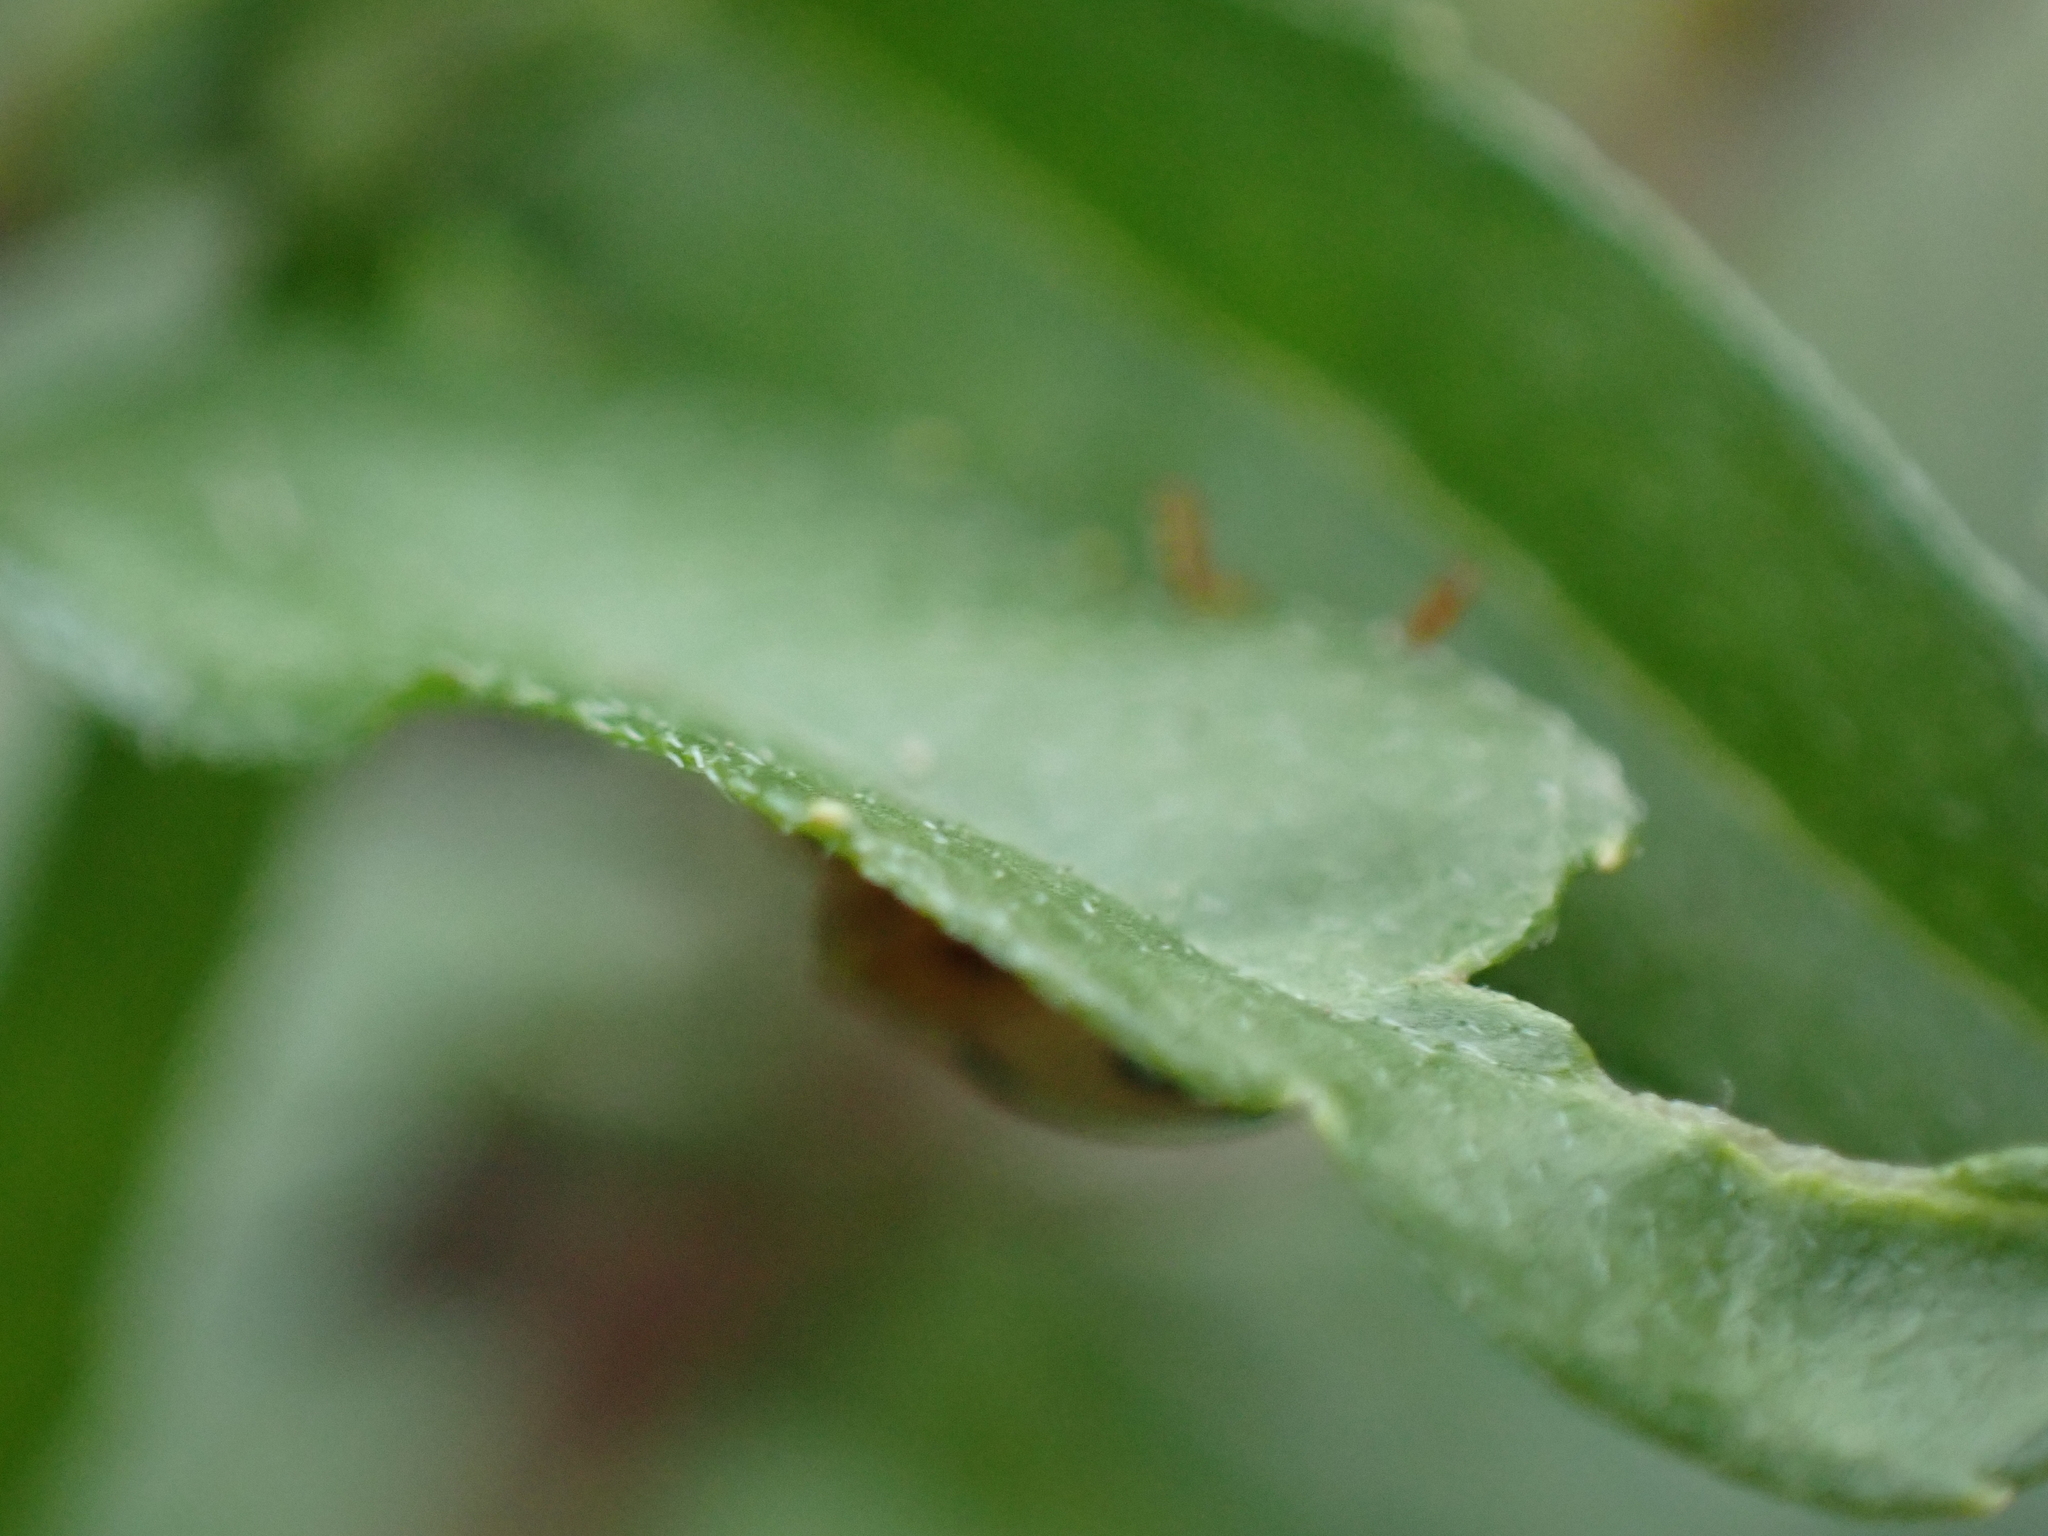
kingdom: Animalia
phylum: Arthropoda
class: Insecta
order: Coleoptera
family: Coccinellidae
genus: Epilachna
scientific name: Epilachna varivestis
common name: Ladybird beetle
